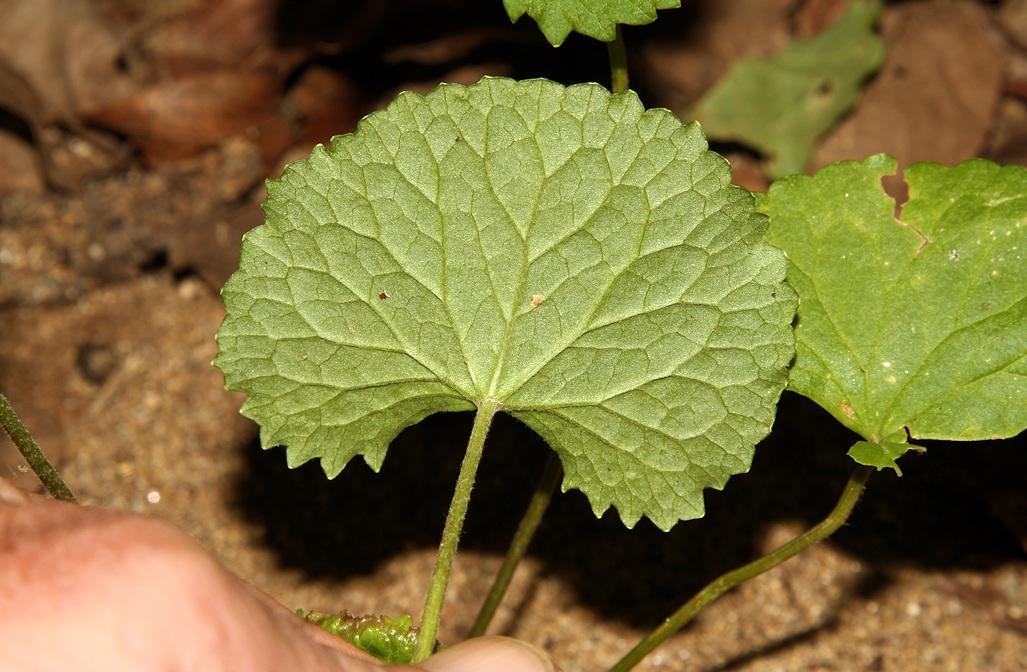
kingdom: Plantae
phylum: Tracheophyta
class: Magnoliopsida
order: Apiales
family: Apiaceae
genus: Centella
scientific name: Centella asiatica
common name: Spadeleaf
